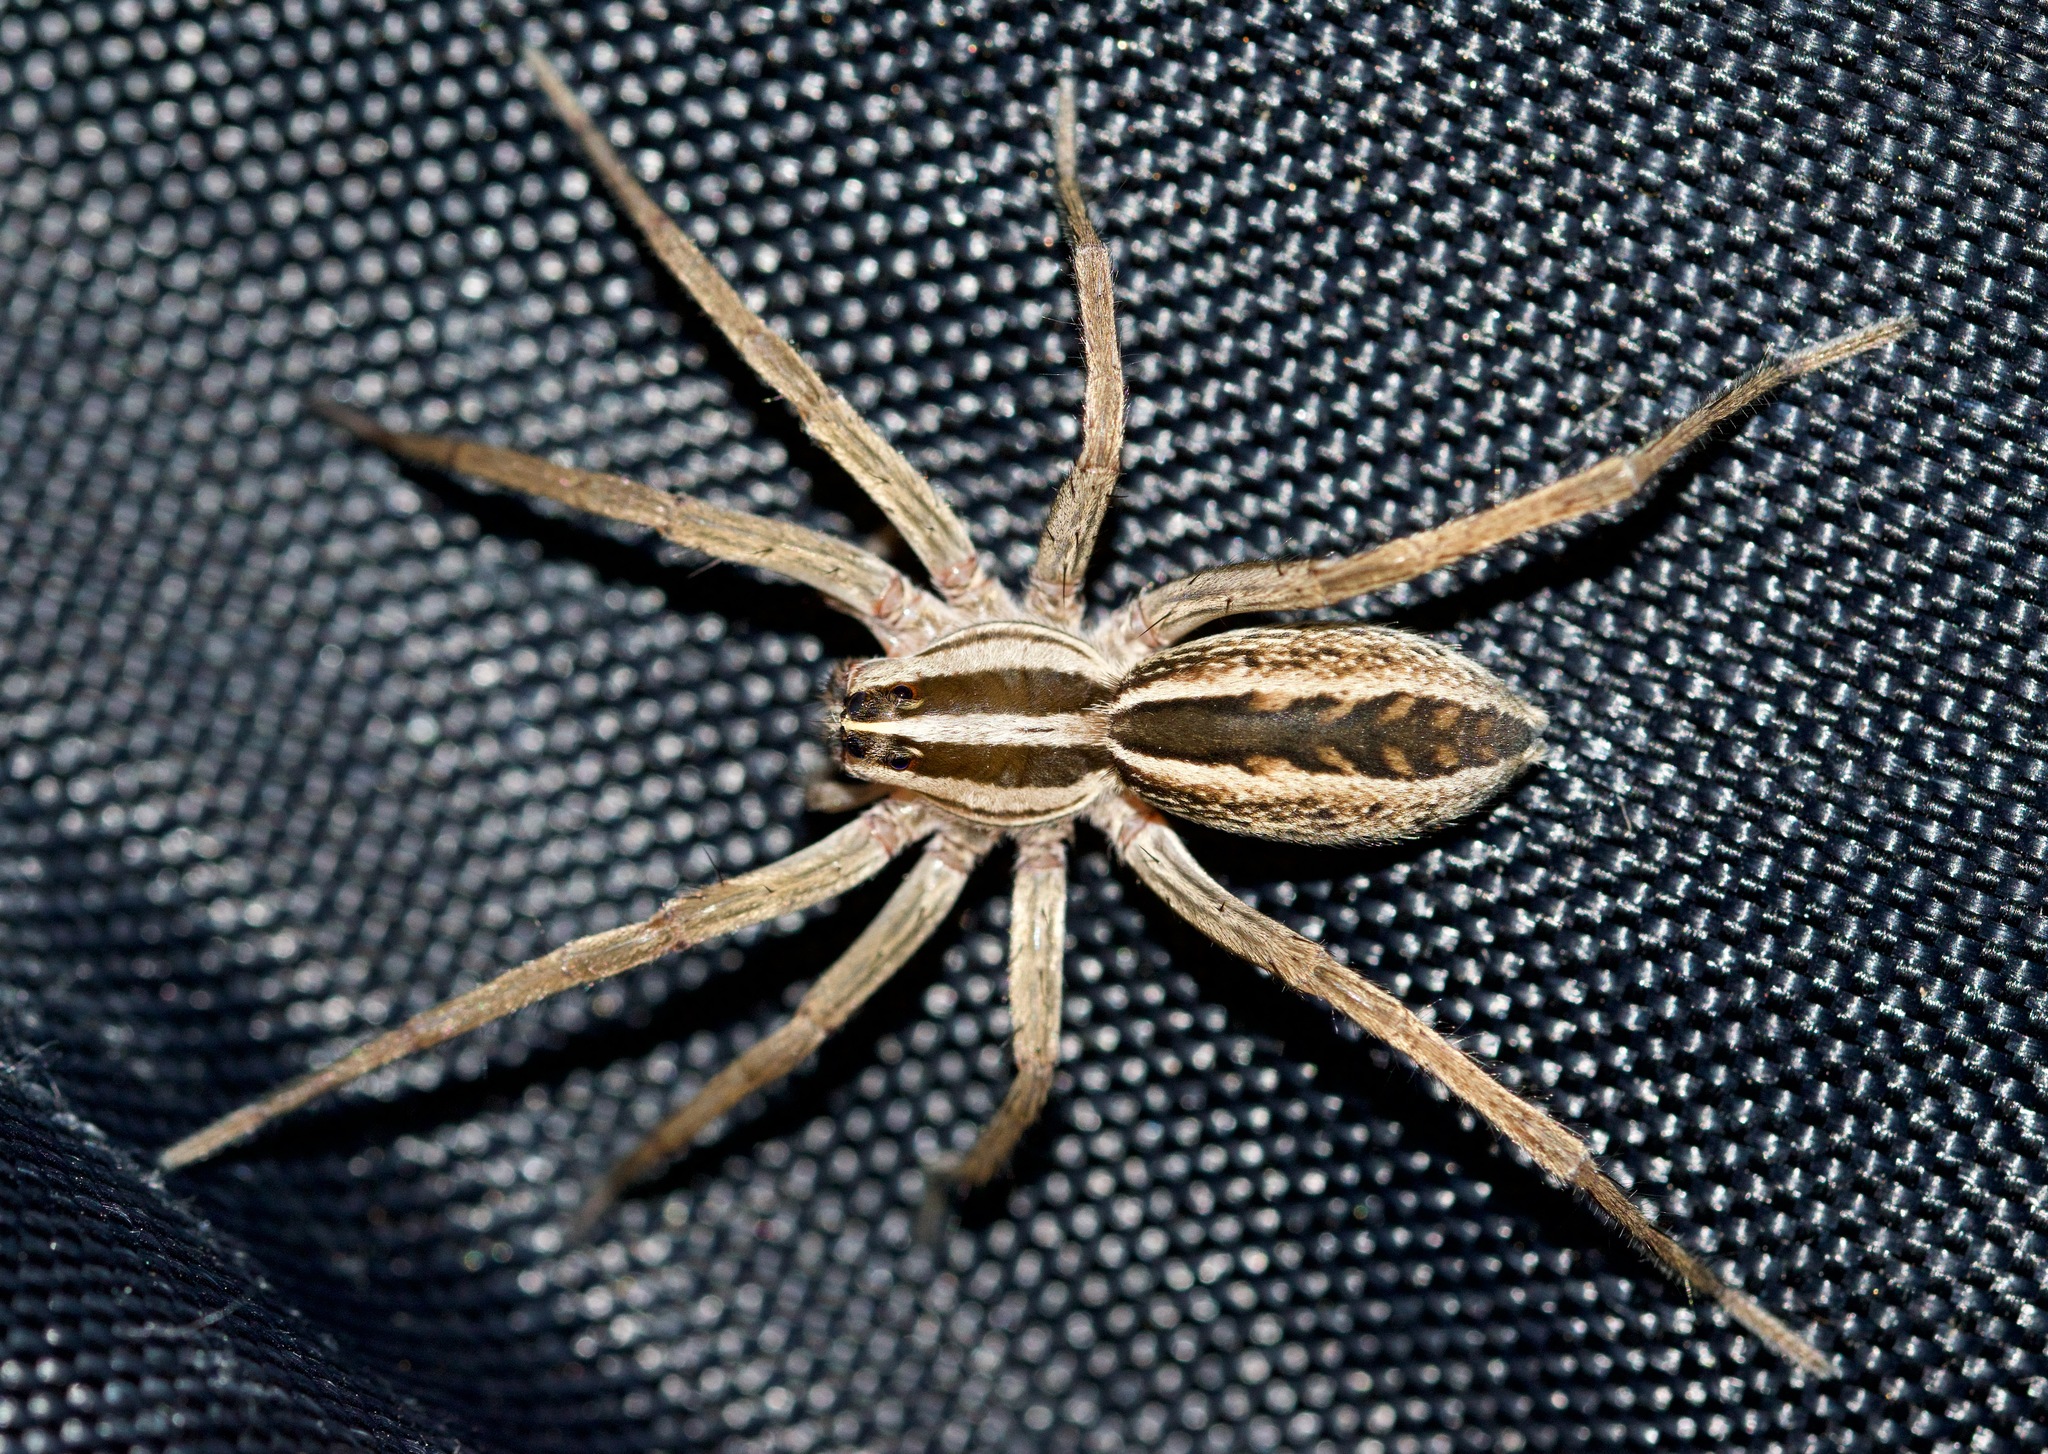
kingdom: Animalia
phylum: Arthropoda
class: Arachnida
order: Araneae
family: Lycosidae
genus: Rabidosa
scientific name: Rabidosa rabida
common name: Rabid wolf spider
